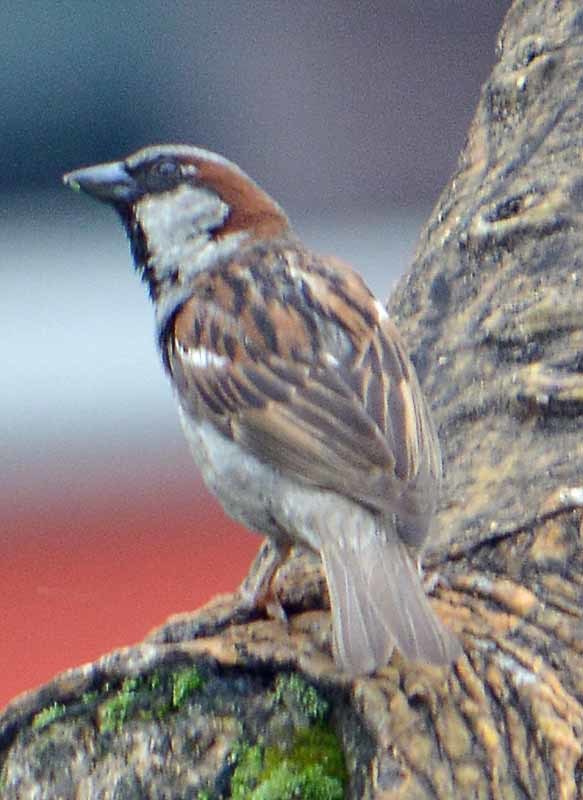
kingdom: Animalia
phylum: Chordata
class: Aves
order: Passeriformes
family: Passeridae
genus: Passer
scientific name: Passer domesticus
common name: House sparrow
